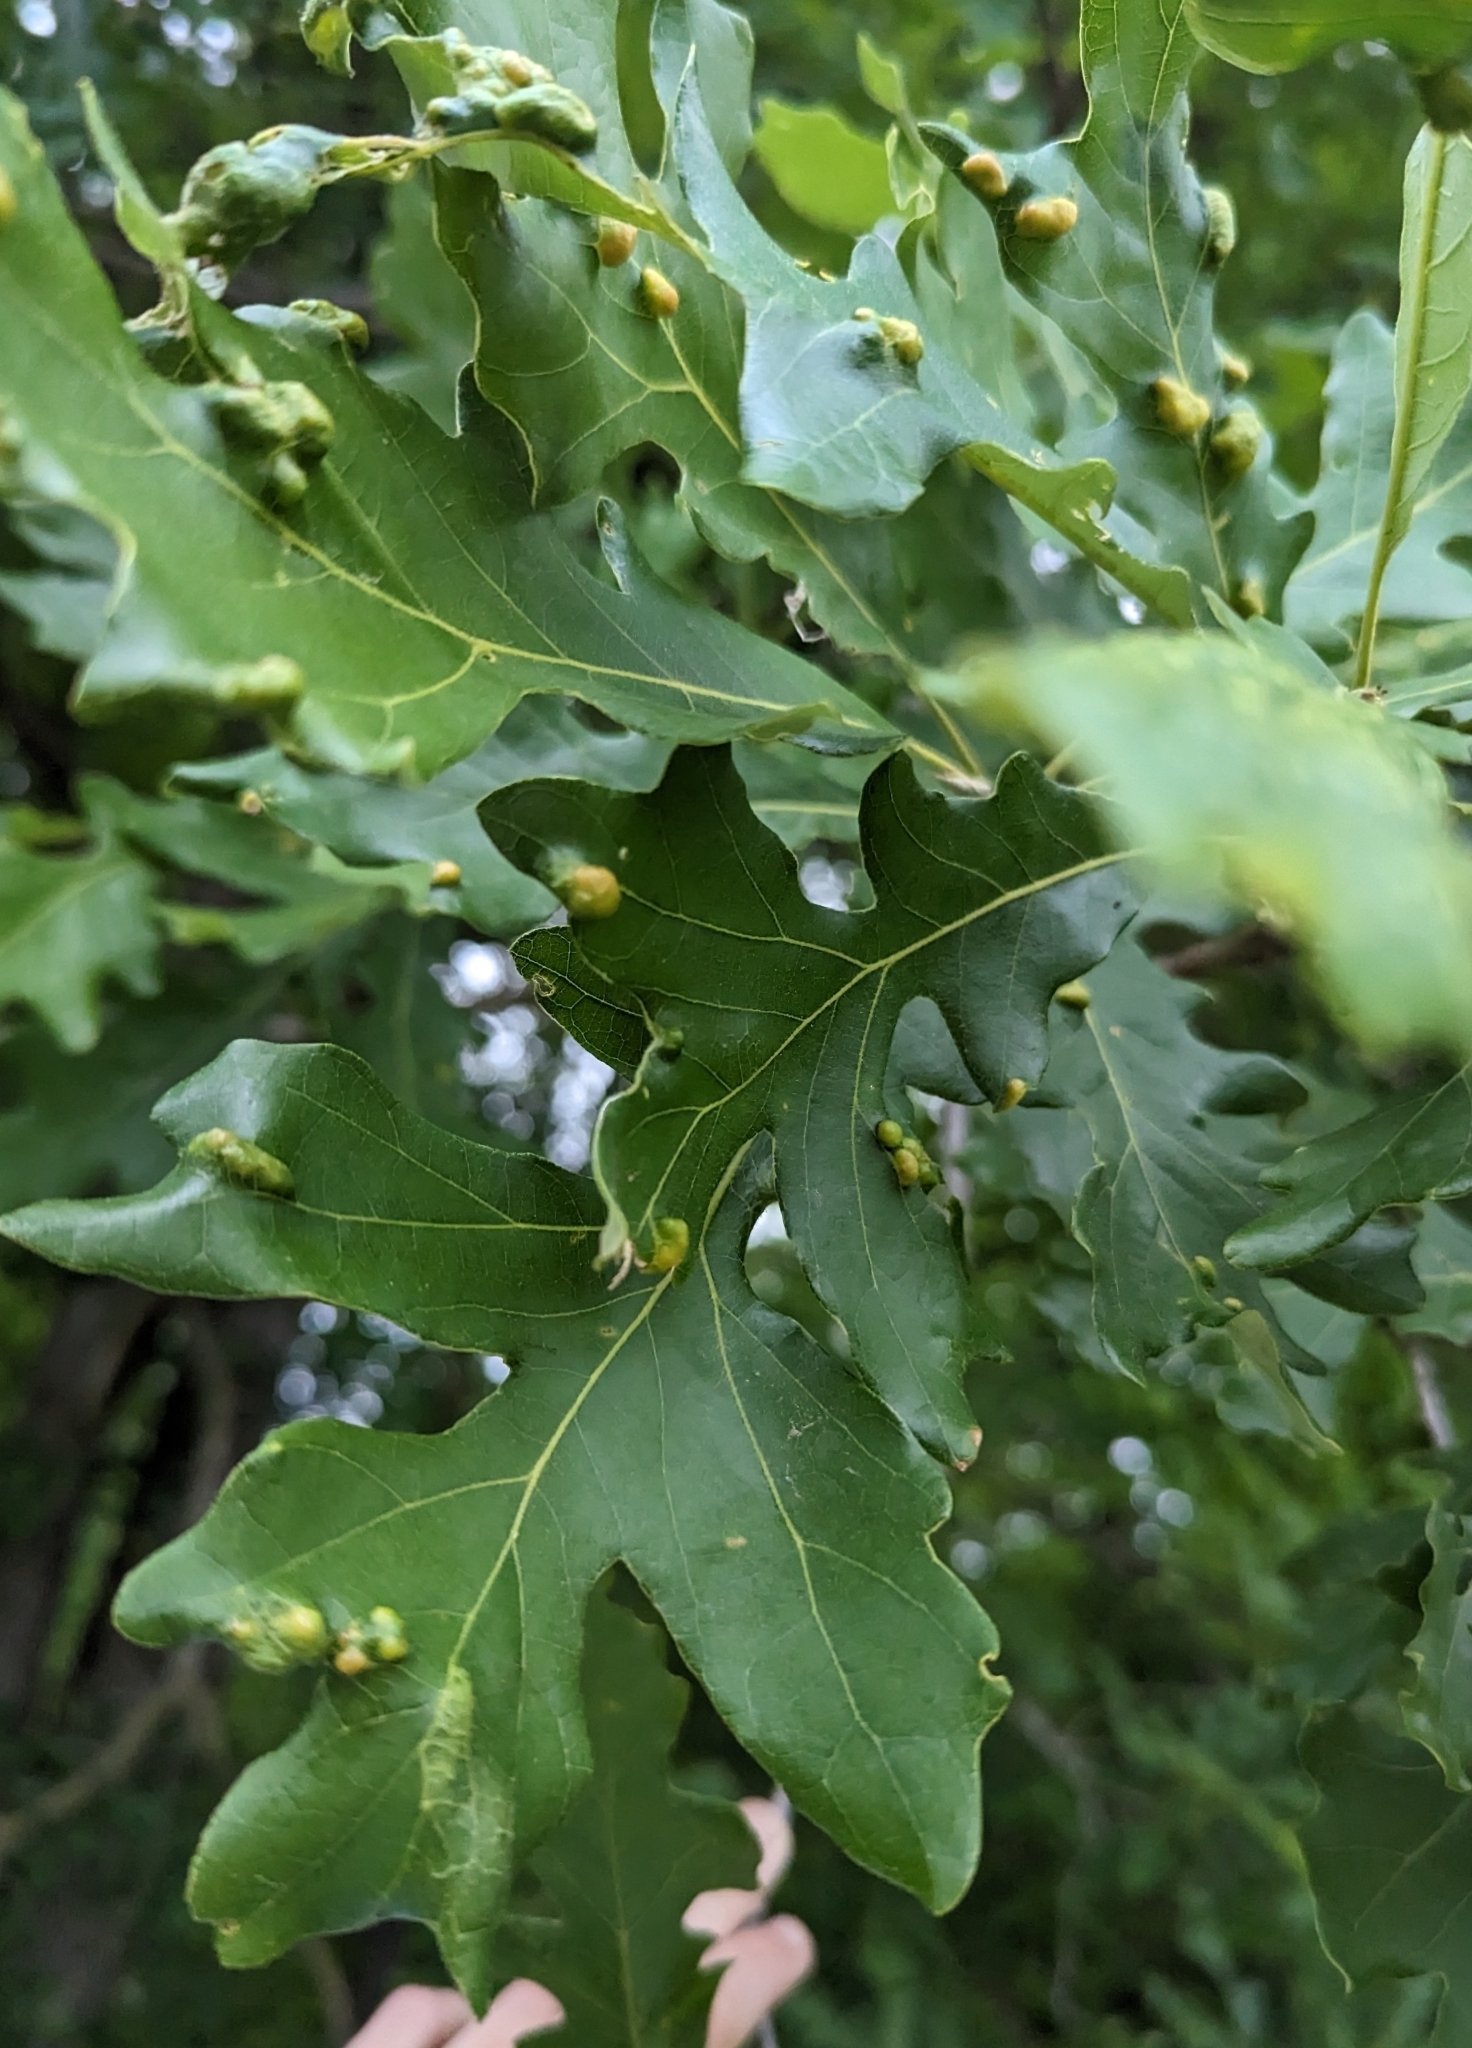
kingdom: Animalia
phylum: Arthropoda
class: Arachnida
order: Trombidiformes
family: Eriophyidae
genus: Aceria
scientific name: Aceria quercina
